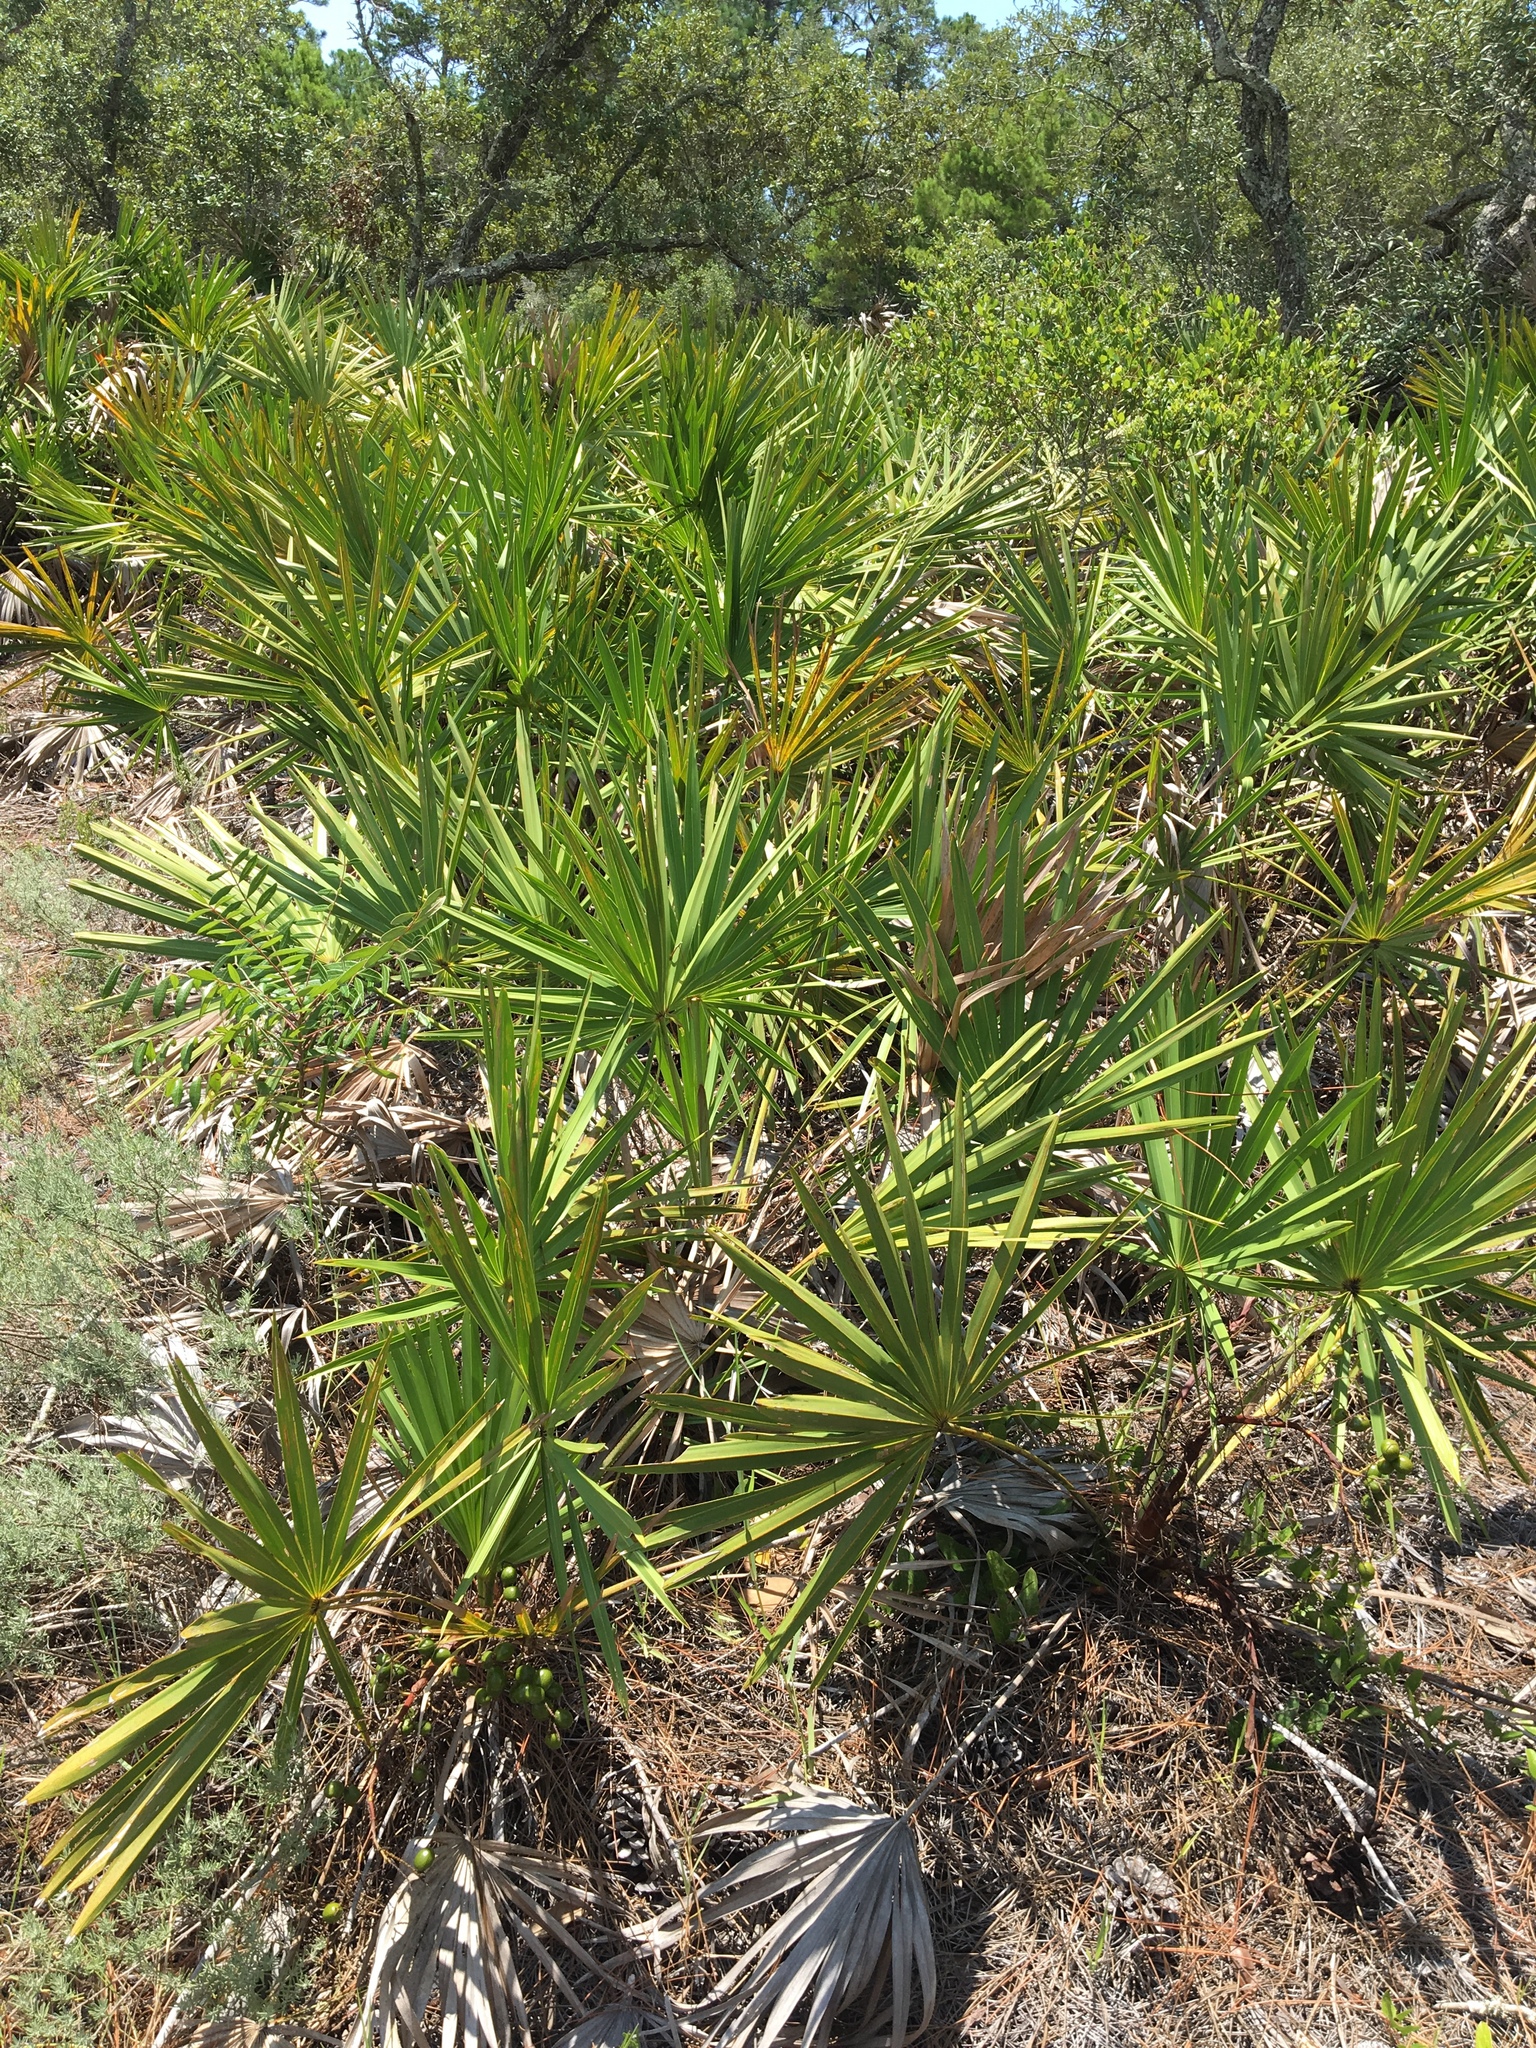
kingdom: Plantae
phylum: Tracheophyta
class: Liliopsida
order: Arecales
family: Arecaceae
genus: Serenoa
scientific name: Serenoa repens
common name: Saw-palmetto
